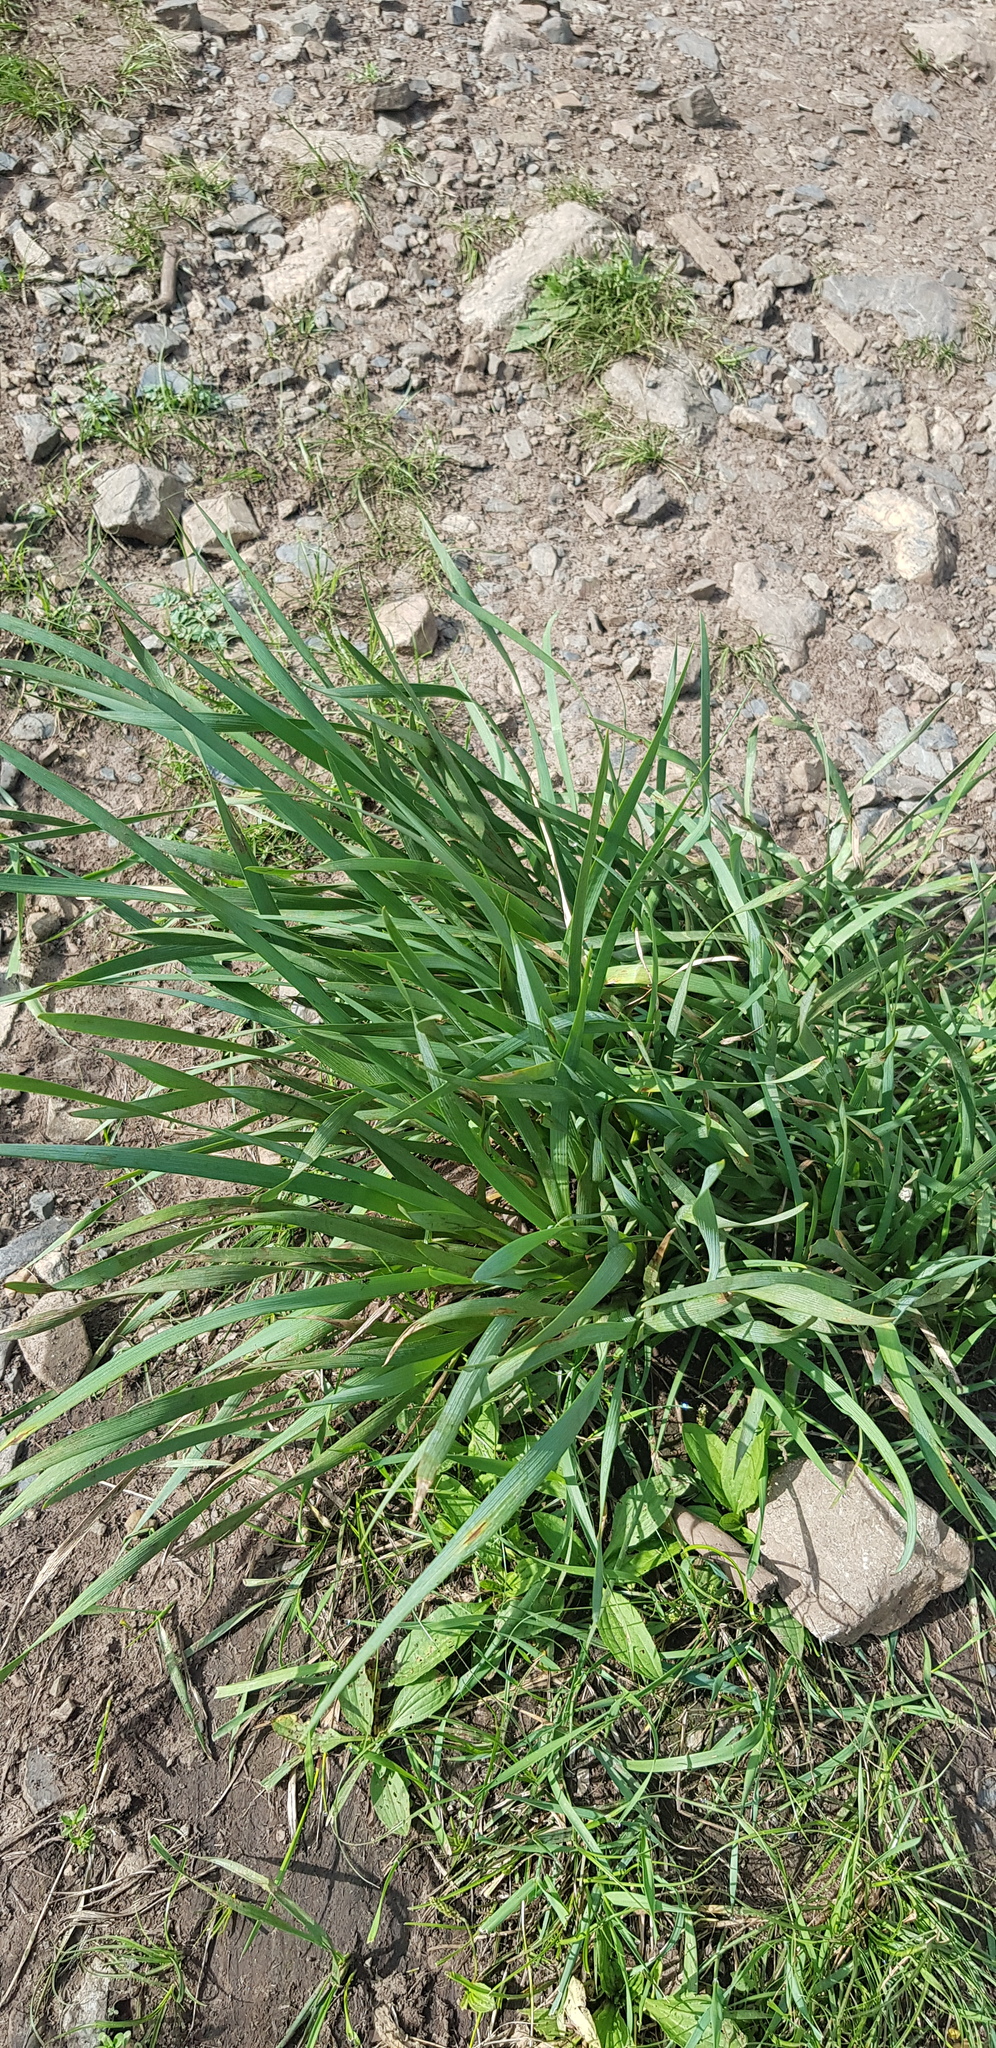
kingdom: Plantae
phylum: Tracheophyta
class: Liliopsida
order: Asparagales
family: Iridaceae
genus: Iris
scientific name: Iris lactea
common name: White-flower chinese iris
